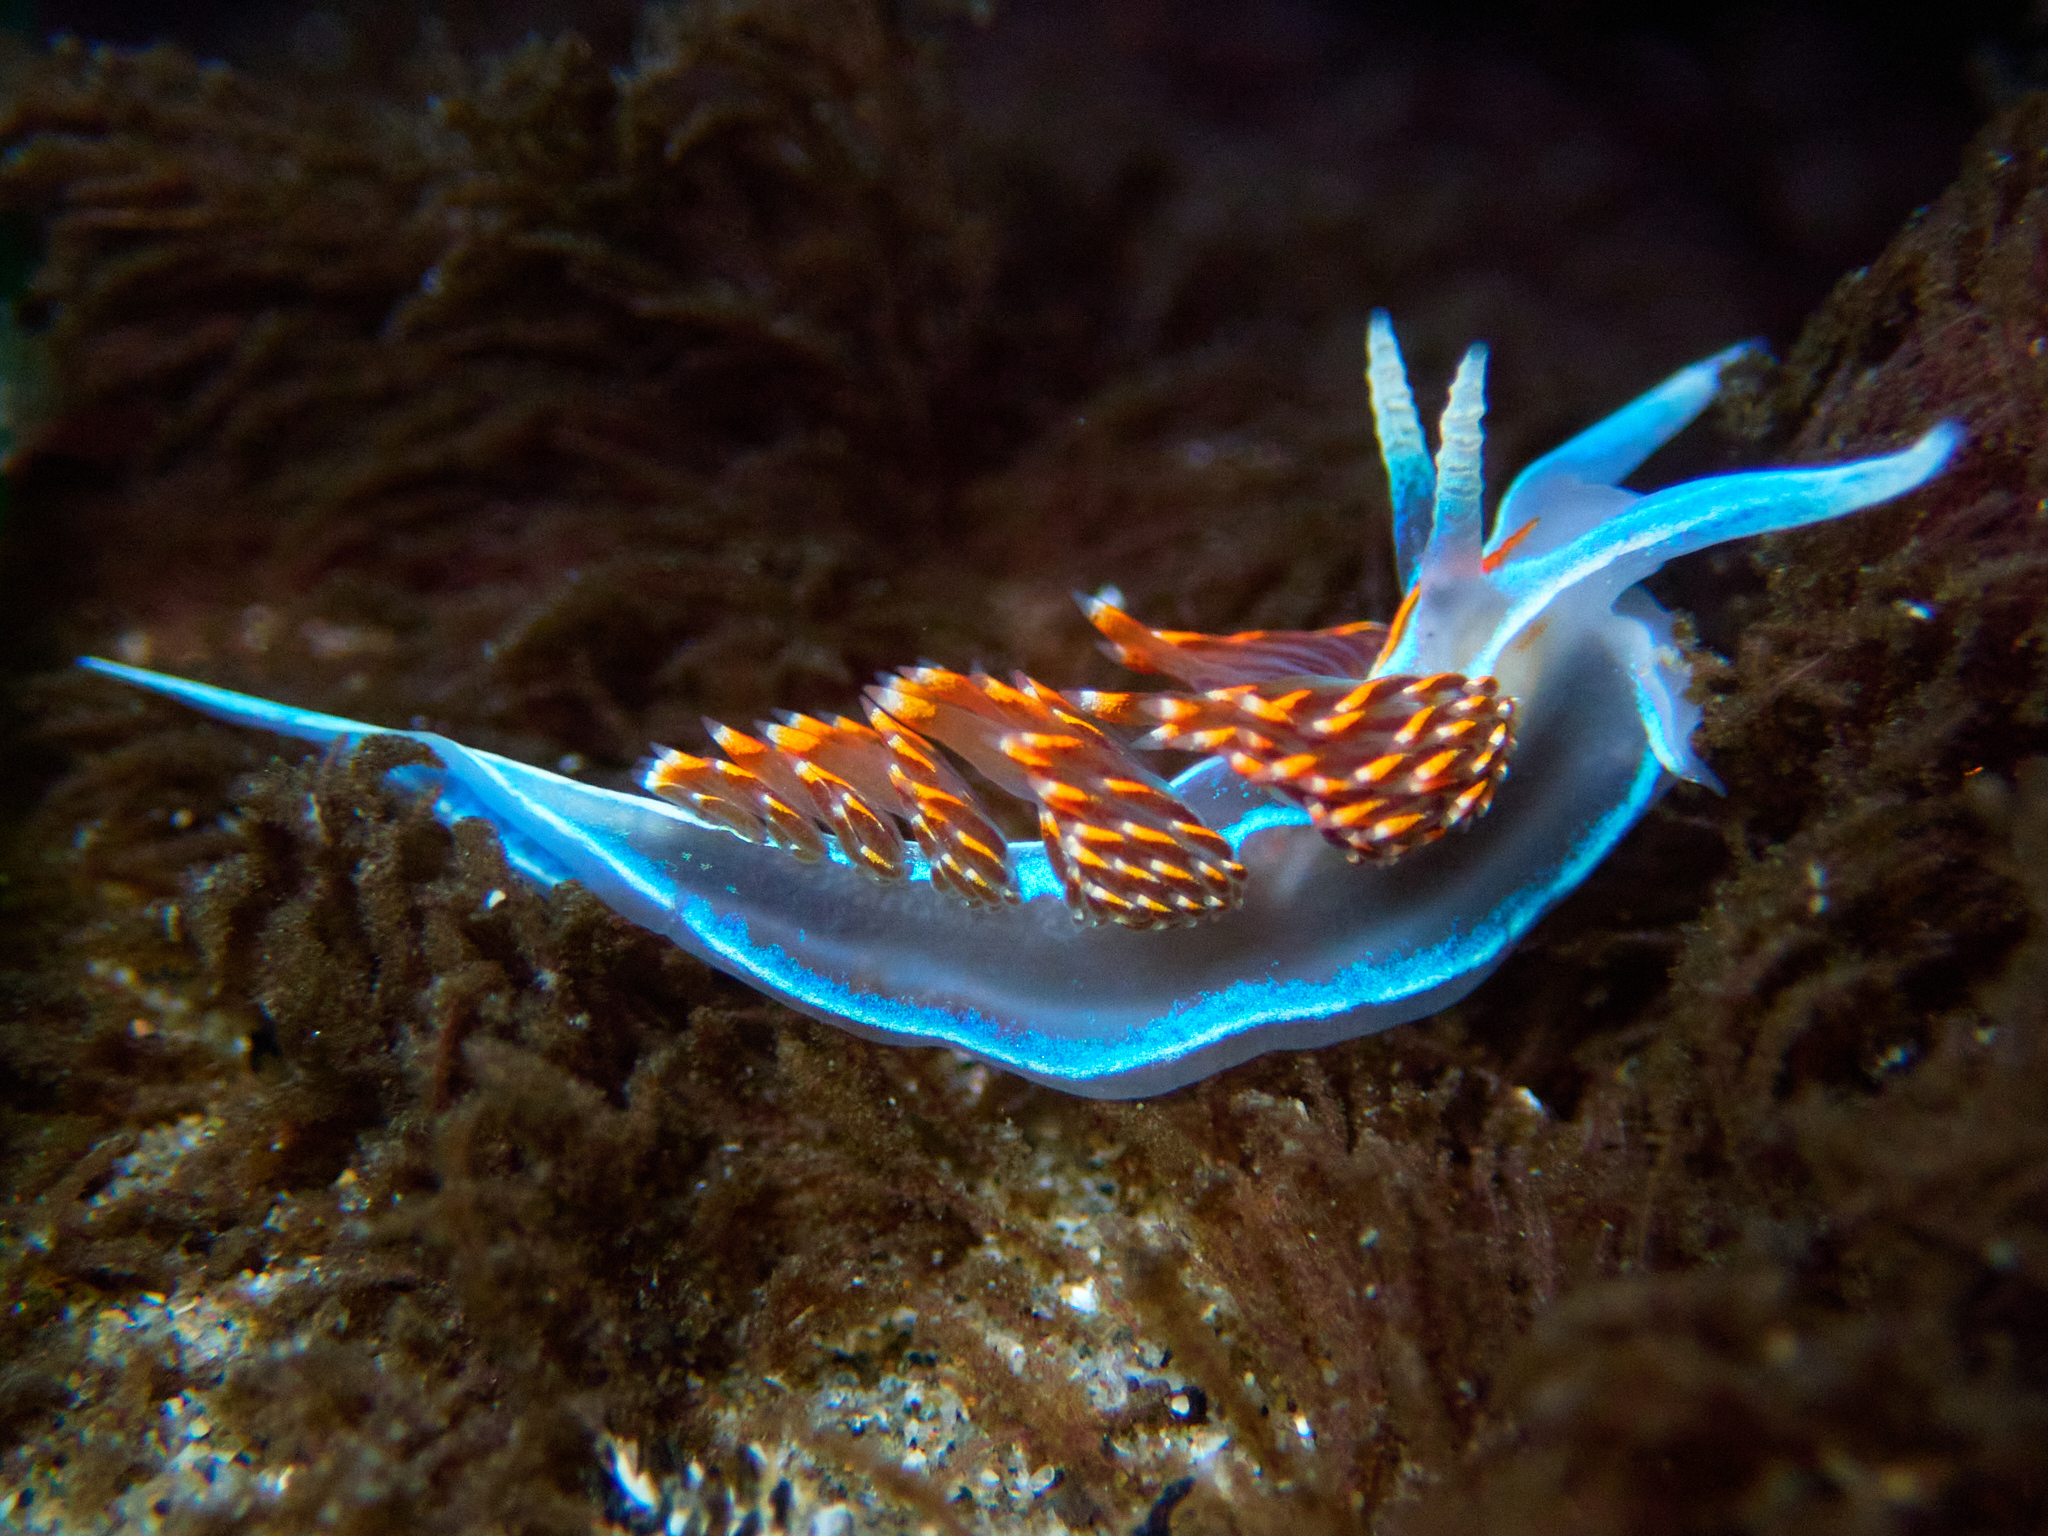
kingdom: Animalia
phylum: Mollusca
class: Gastropoda
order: Nudibranchia
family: Myrrhinidae
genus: Hermissenda
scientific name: Hermissenda opalescens
